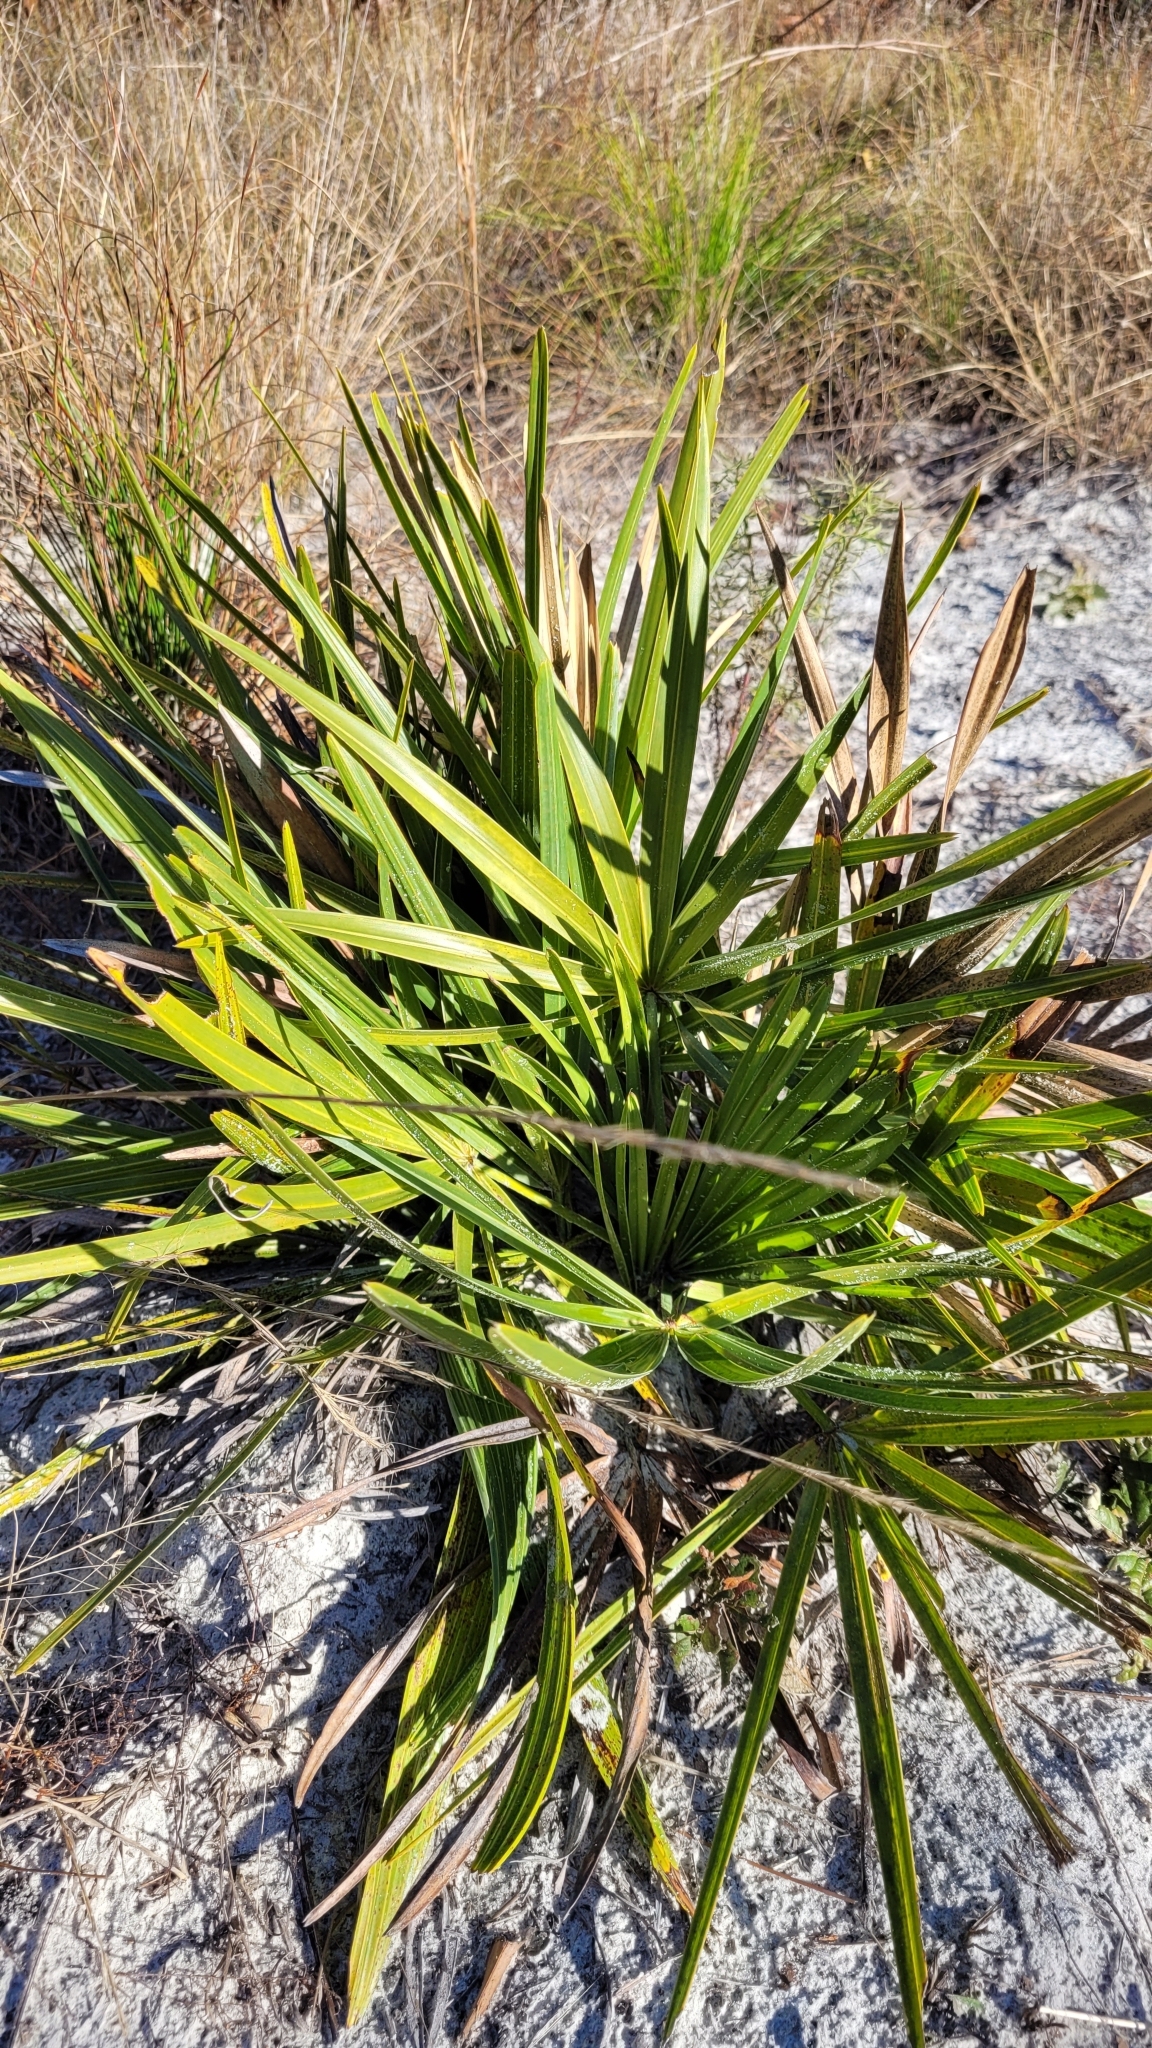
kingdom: Plantae
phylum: Tracheophyta
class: Liliopsida
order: Arecales
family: Arecaceae
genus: Serenoa
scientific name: Serenoa repens
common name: Saw-palmetto
